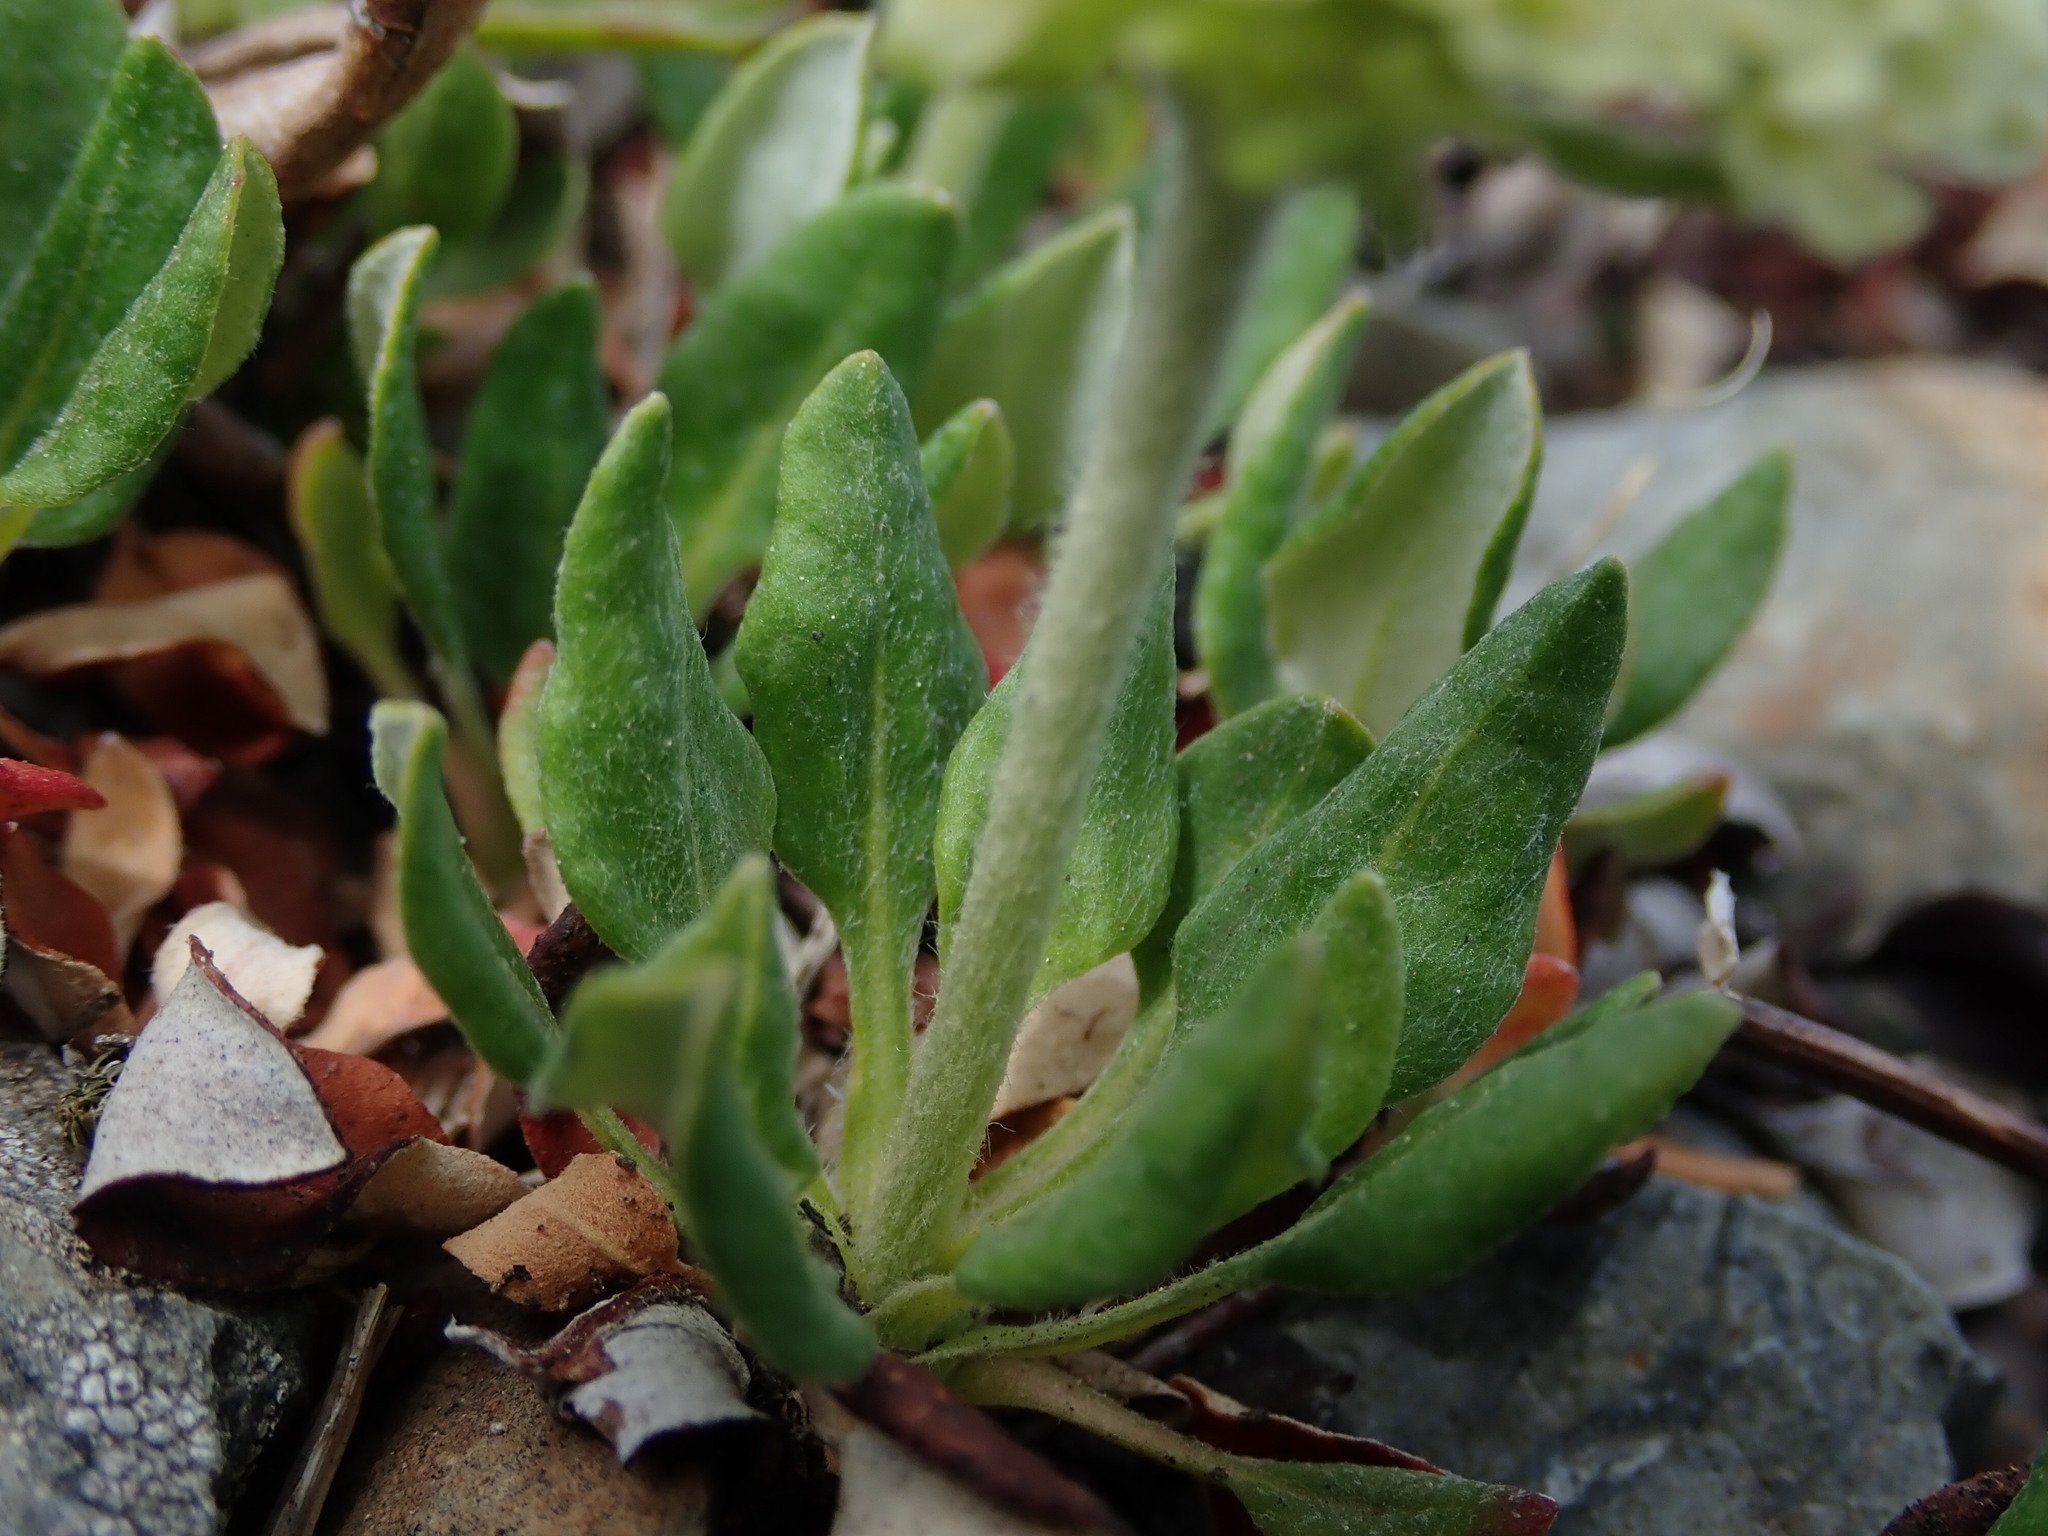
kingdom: Plantae
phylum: Tracheophyta
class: Magnoliopsida
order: Caryophyllales
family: Polygonaceae
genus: Eriogonum
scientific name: Eriogonum umbellatum
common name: Sulfur-buckwheat
